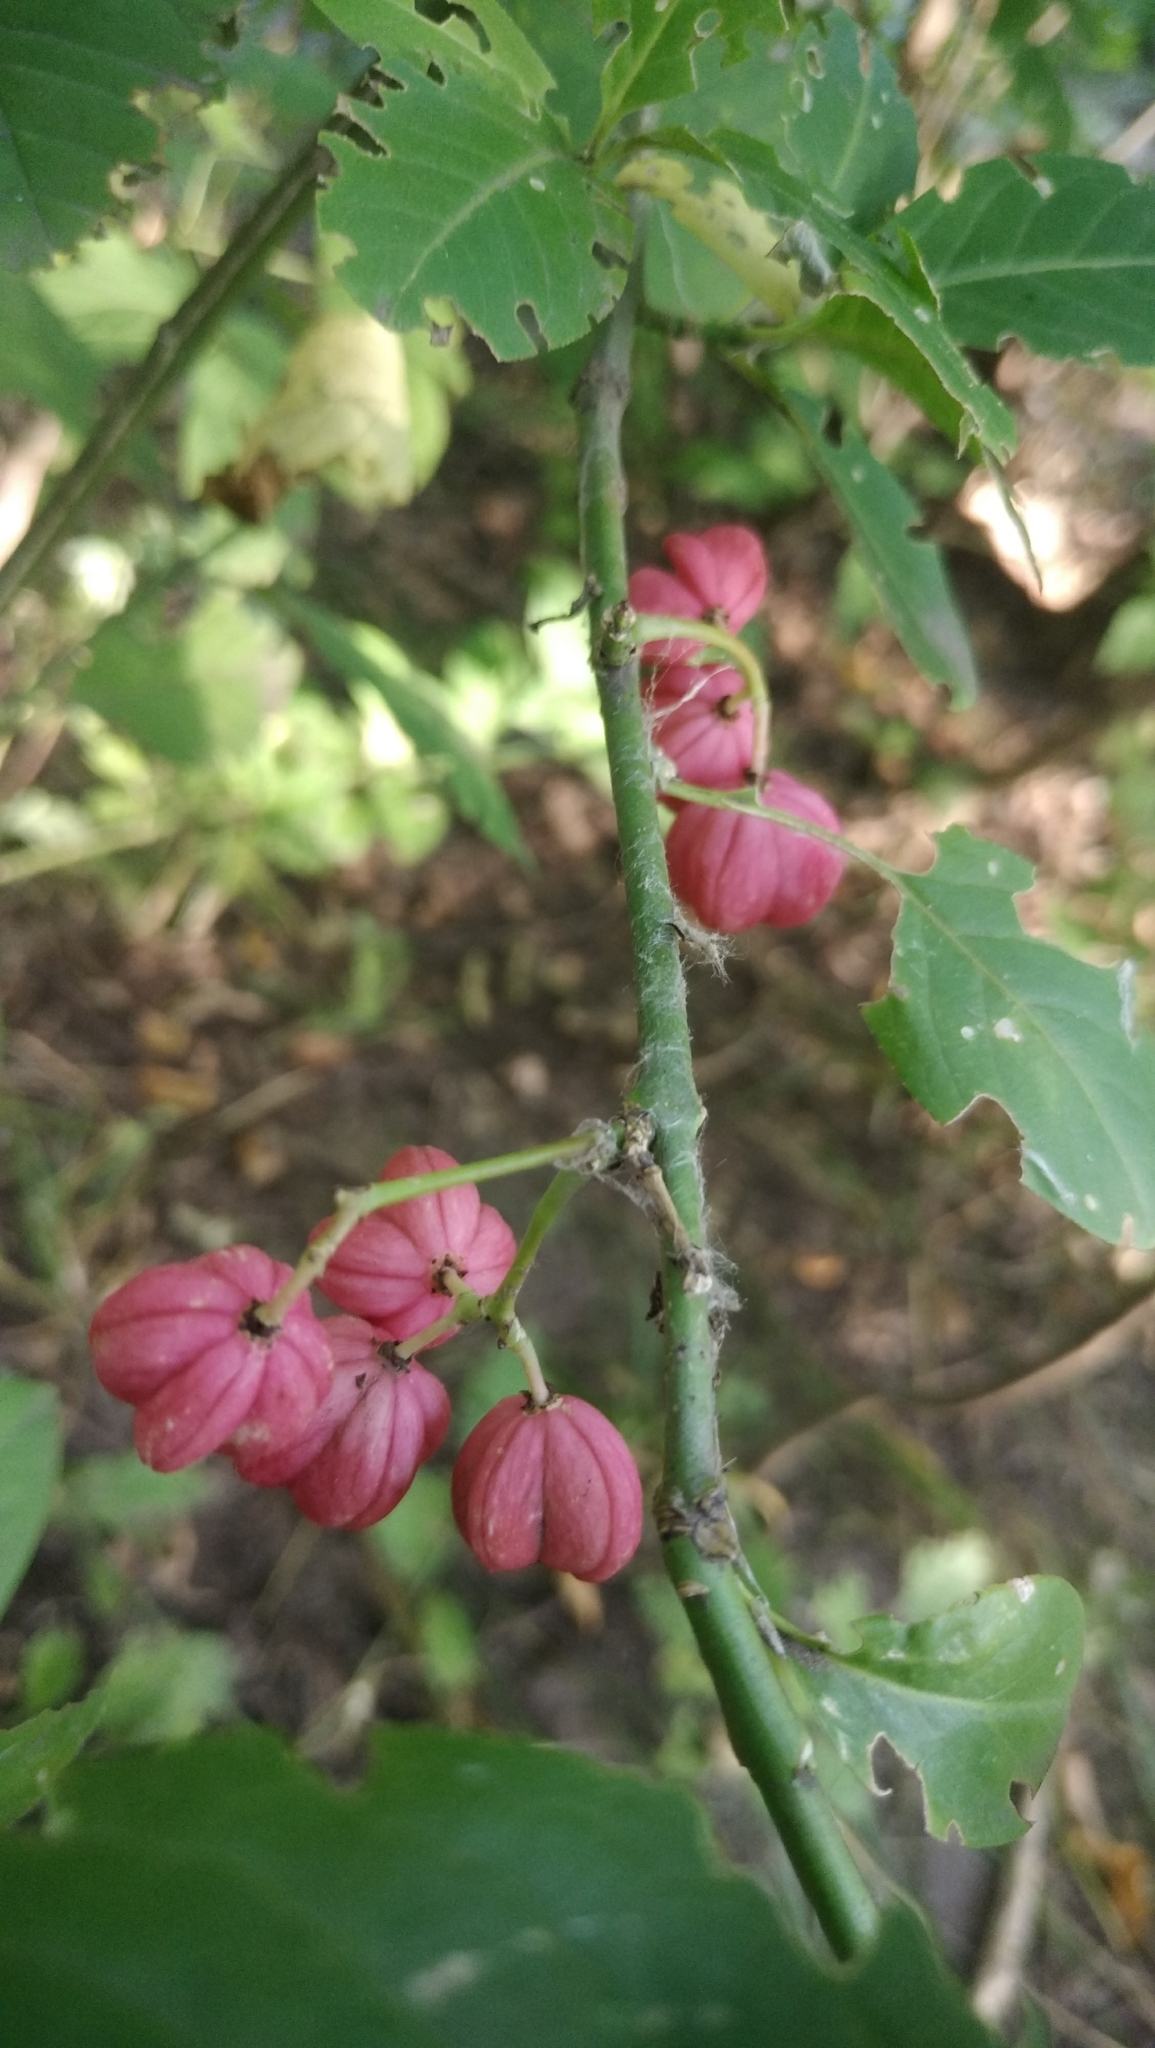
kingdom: Plantae
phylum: Tracheophyta
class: Magnoliopsida
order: Celastrales
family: Celastraceae
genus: Euonymus
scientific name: Euonymus europaeus
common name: Spindle
